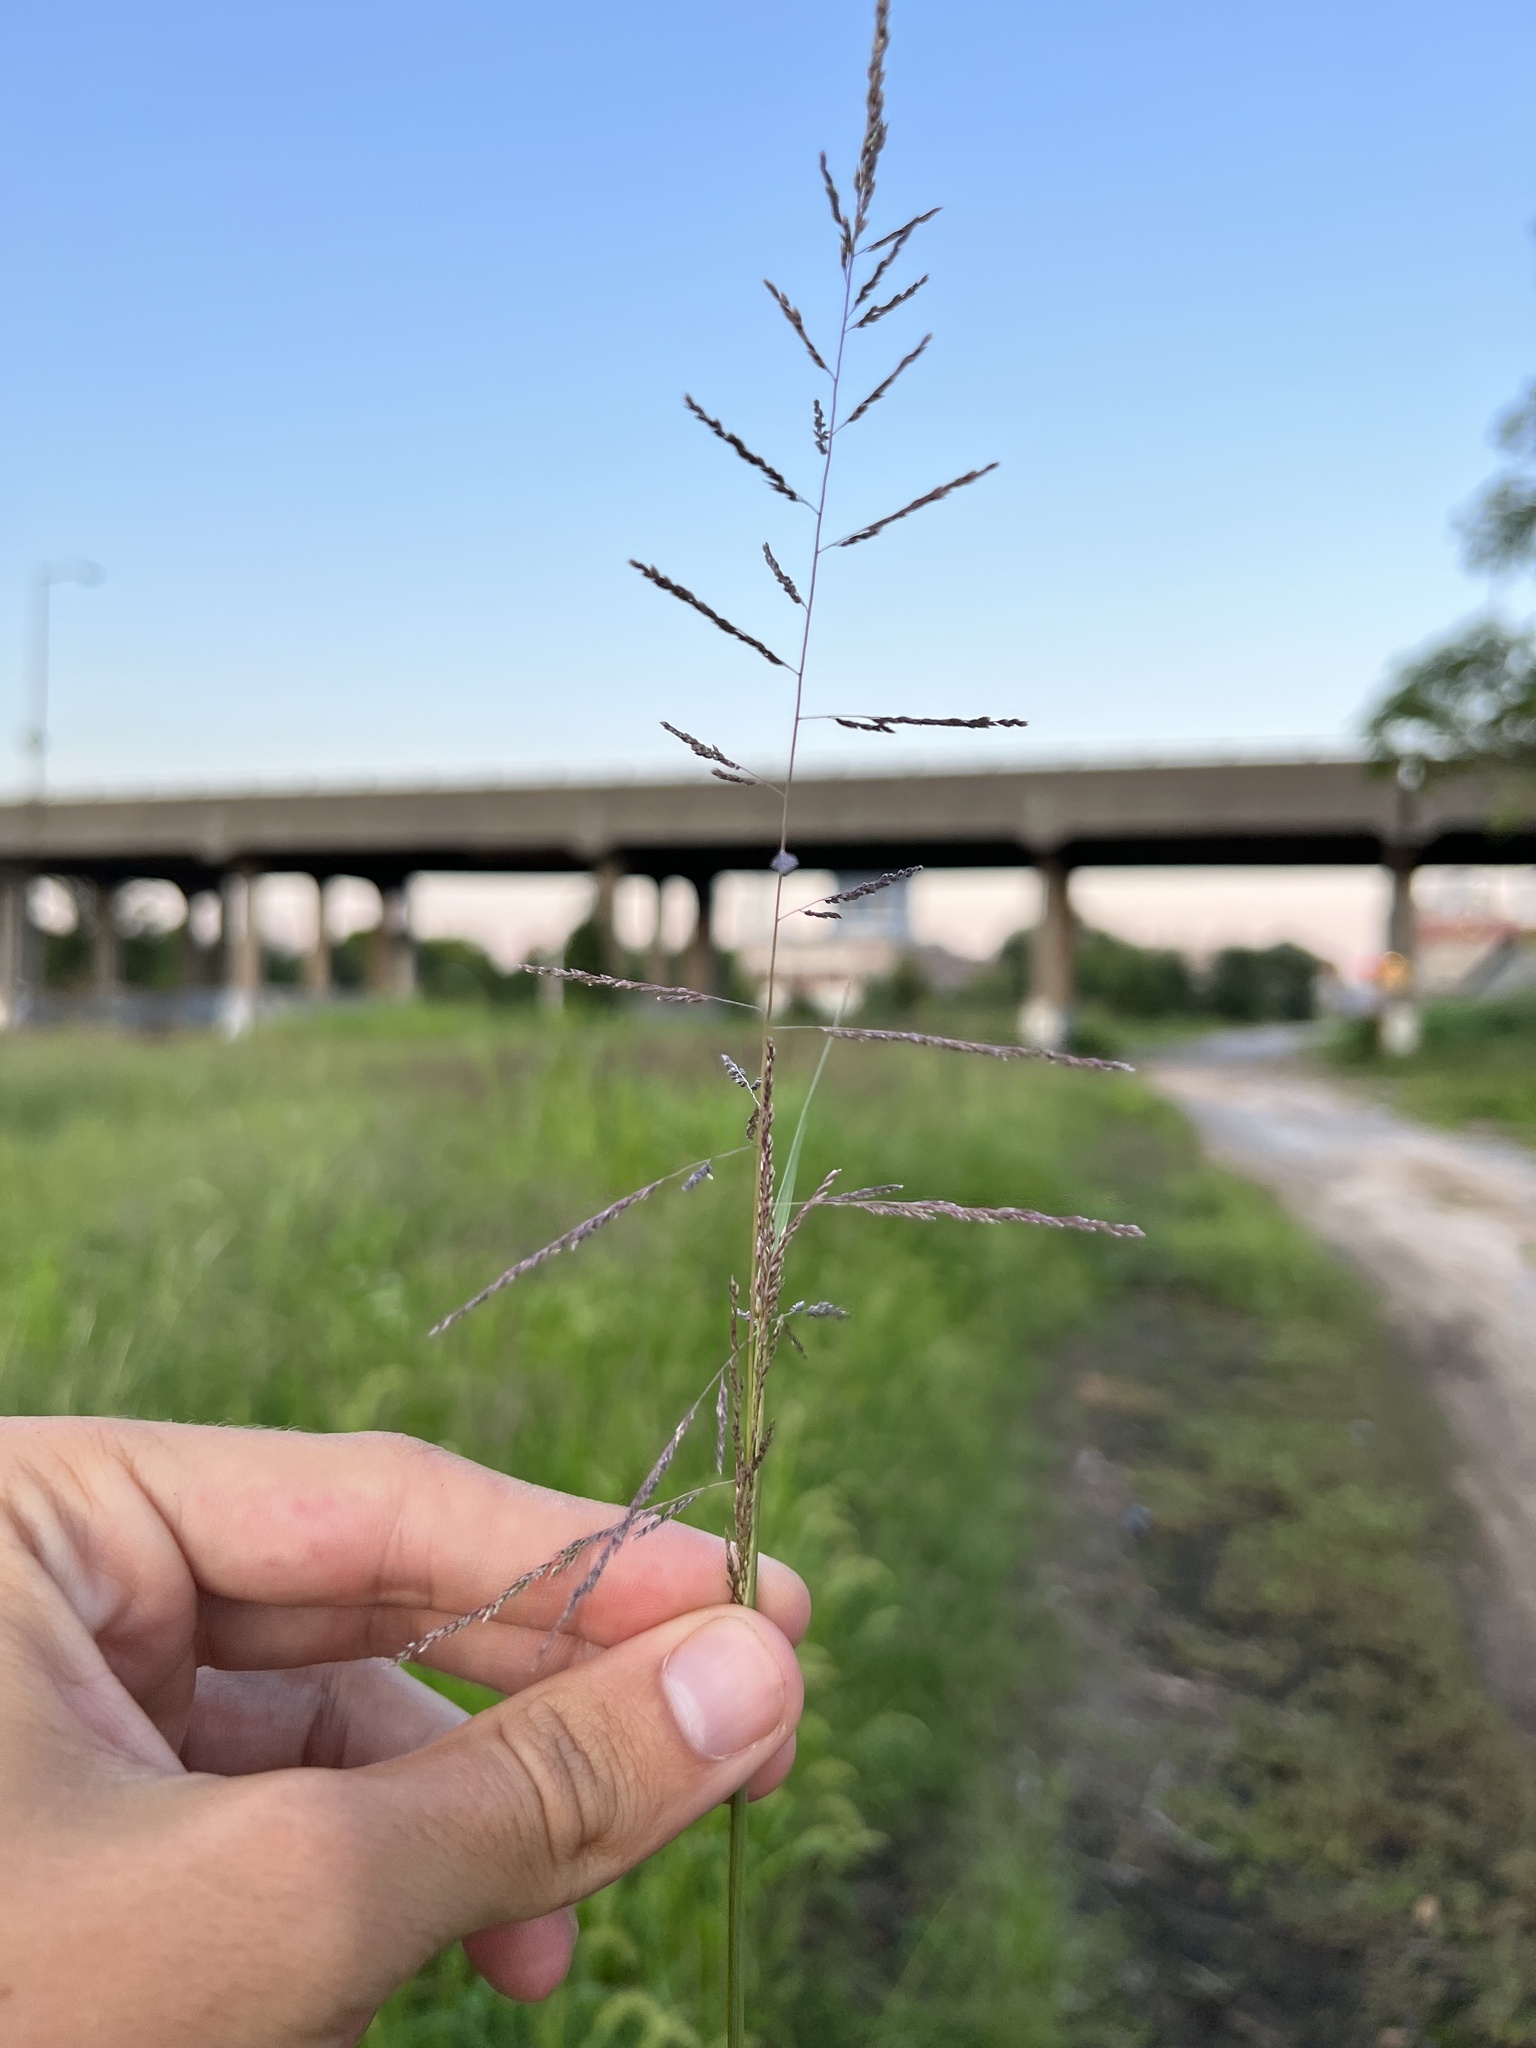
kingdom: Plantae
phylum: Tracheophyta
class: Liliopsida
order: Poales
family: Poaceae
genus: Sporobolus
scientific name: Sporobolus cryptandrus
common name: Sand dropseed
